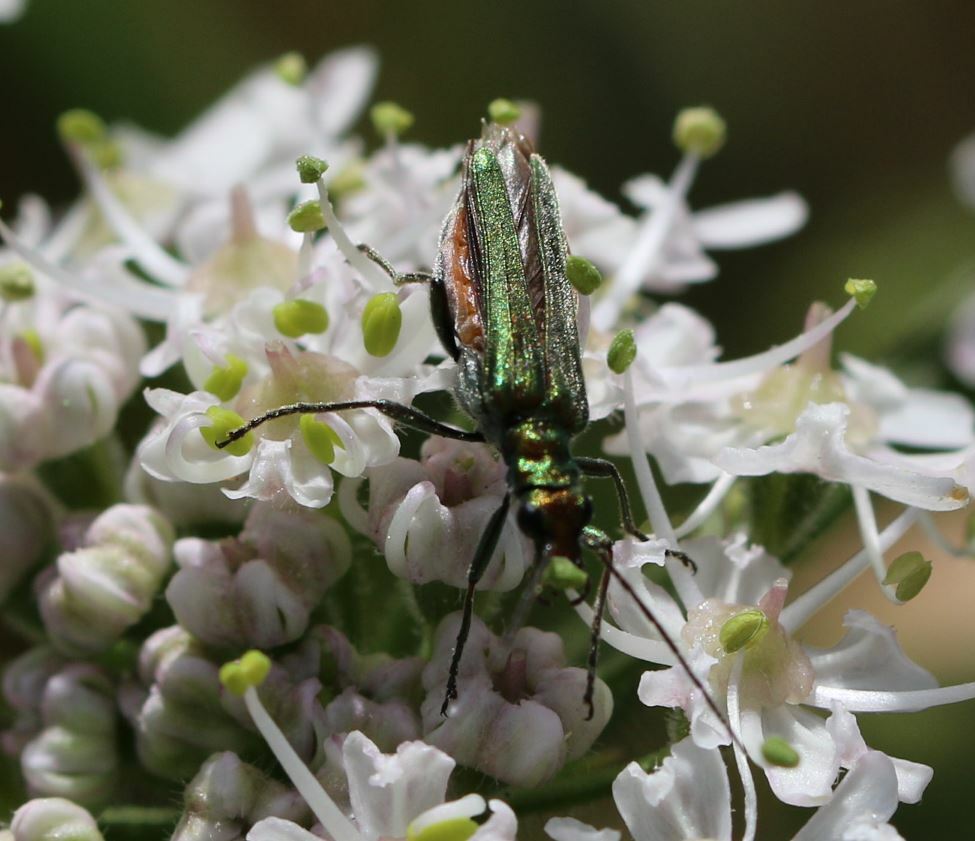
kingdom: Animalia
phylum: Arthropoda
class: Insecta
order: Coleoptera
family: Oedemeridae
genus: Oedemera
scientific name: Oedemera nobilis
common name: Swollen-thighed beetle
